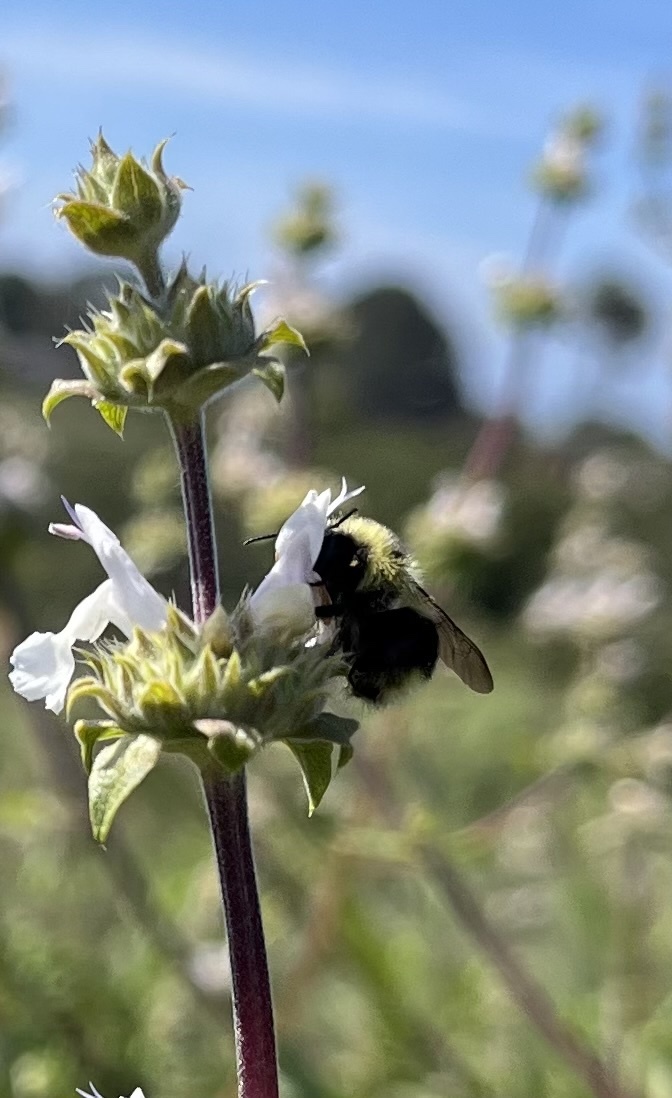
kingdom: Animalia
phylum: Arthropoda
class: Insecta
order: Hymenoptera
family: Apidae
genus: Bombus
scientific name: Bombus melanopygus
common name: Black tail bumble bee
